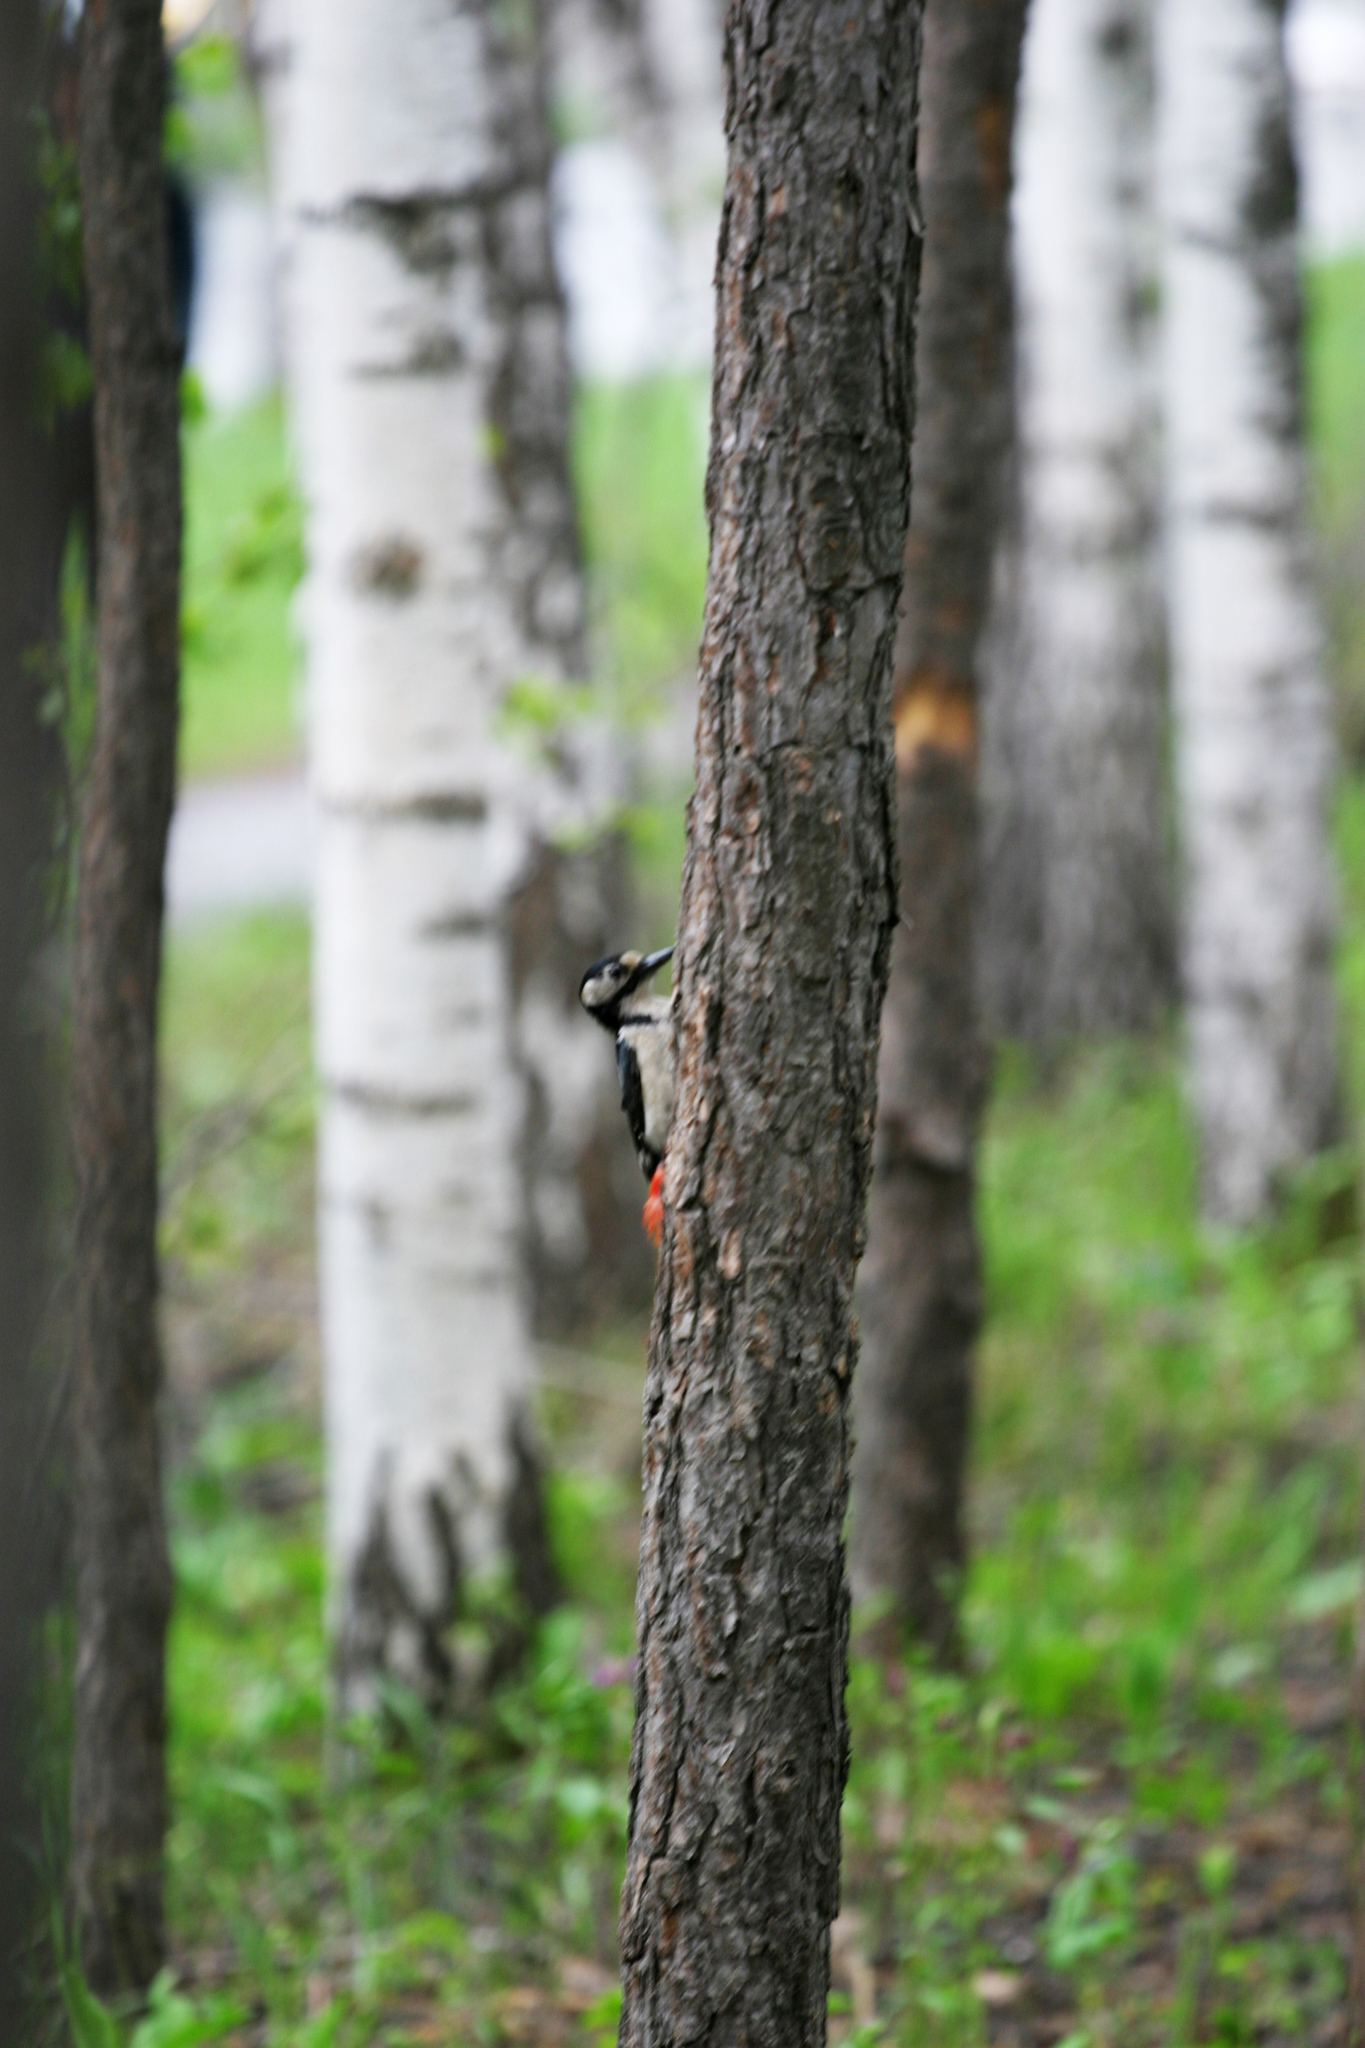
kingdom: Animalia
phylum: Chordata
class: Aves
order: Piciformes
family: Picidae
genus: Dendrocopos
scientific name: Dendrocopos major
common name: Great spotted woodpecker
